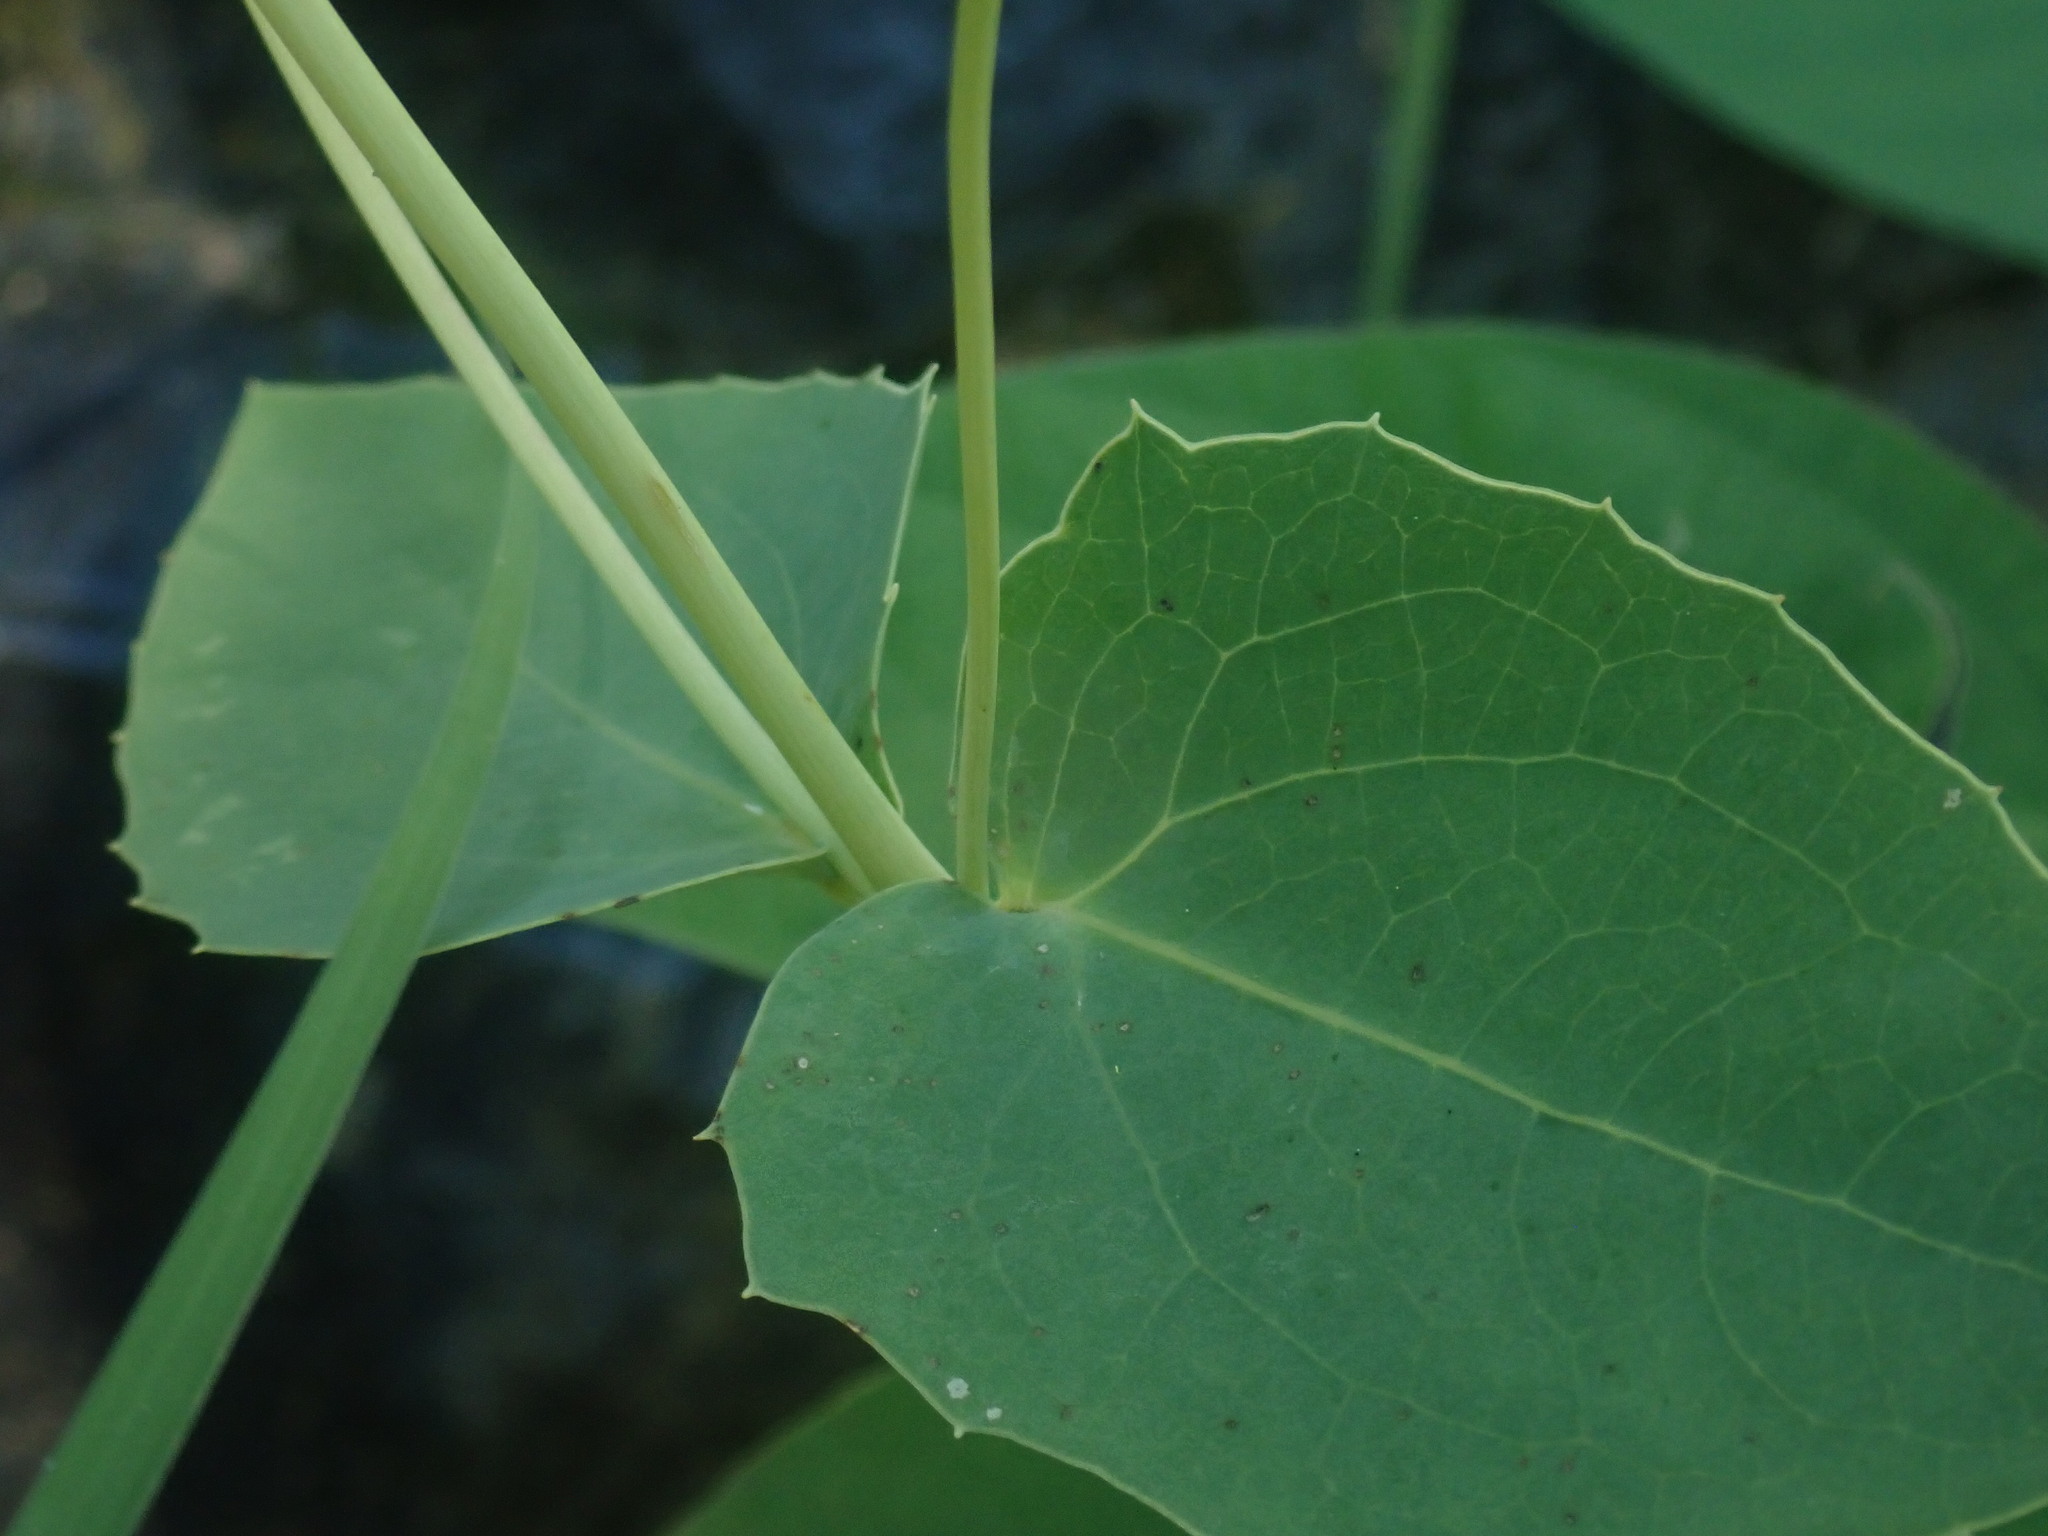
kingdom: Plantae
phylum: Tracheophyta
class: Magnoliopsida
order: Asterales
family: Asteraceae
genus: Guardiola
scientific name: Guardiola platyphylla
